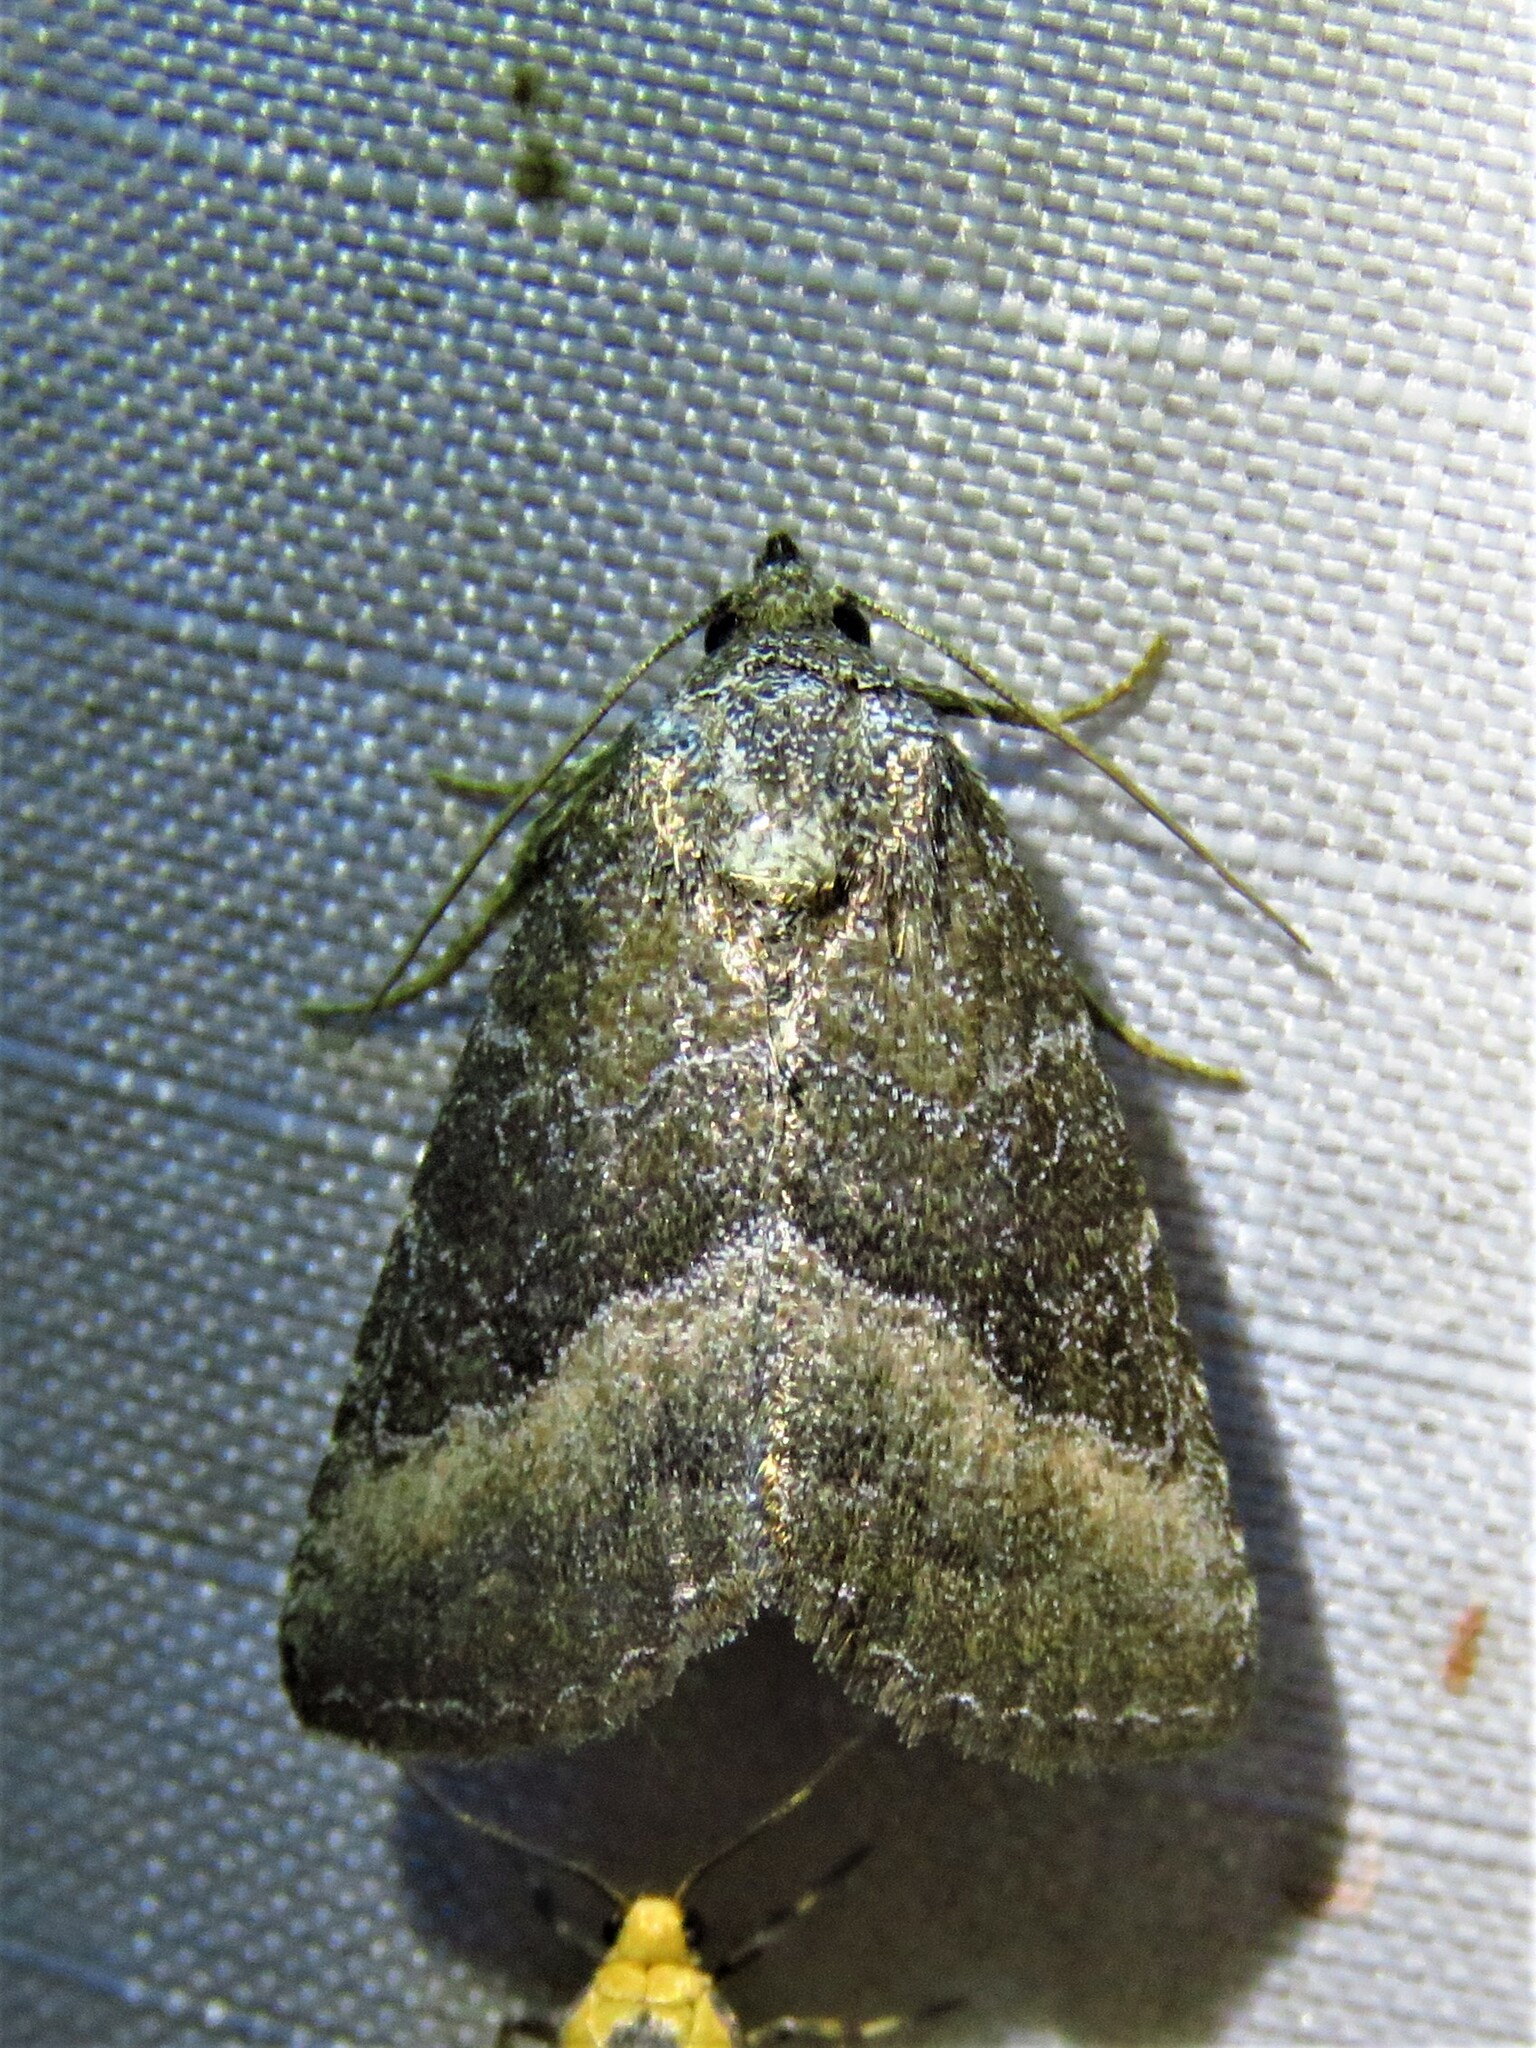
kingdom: Animalia
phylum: Arthropoda
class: Insecta
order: Lepidoptera
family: Noctuidae
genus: Ogdoconta
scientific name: Ogdoconta cinereola
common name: Common pinkband
